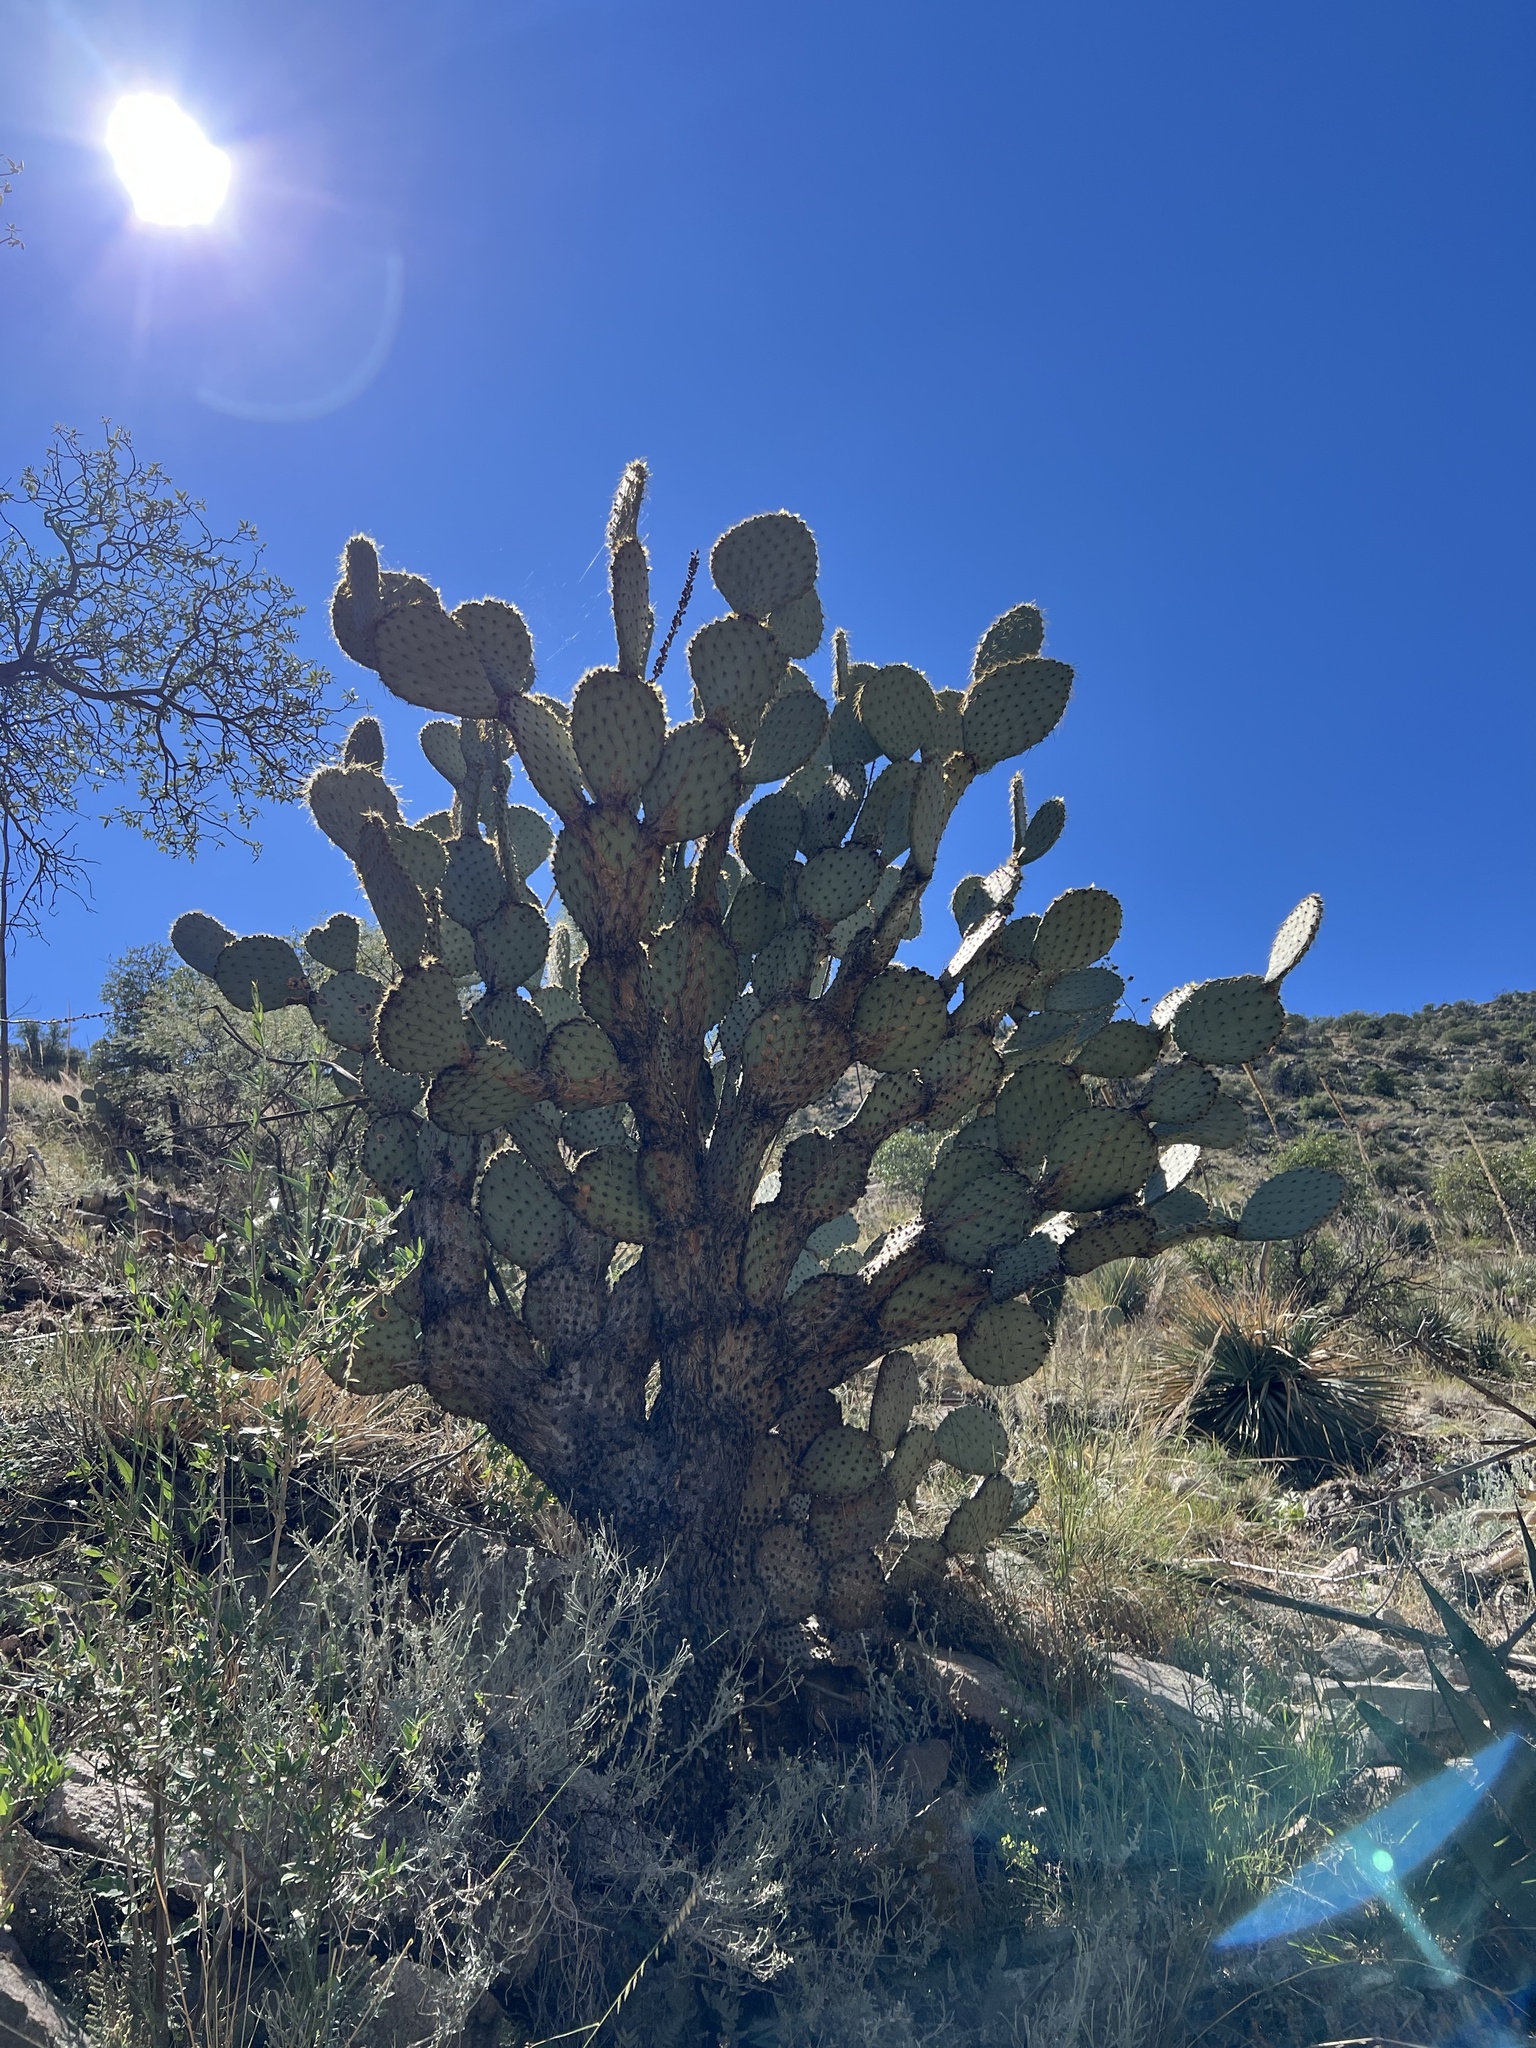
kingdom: Plantae
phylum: Tracheophyta
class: Magnoliopsida
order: Caryophyllales
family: Cactaceae
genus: Opuntia
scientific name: Opuntia chlorotica
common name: Dollar-joint prickly-pear
